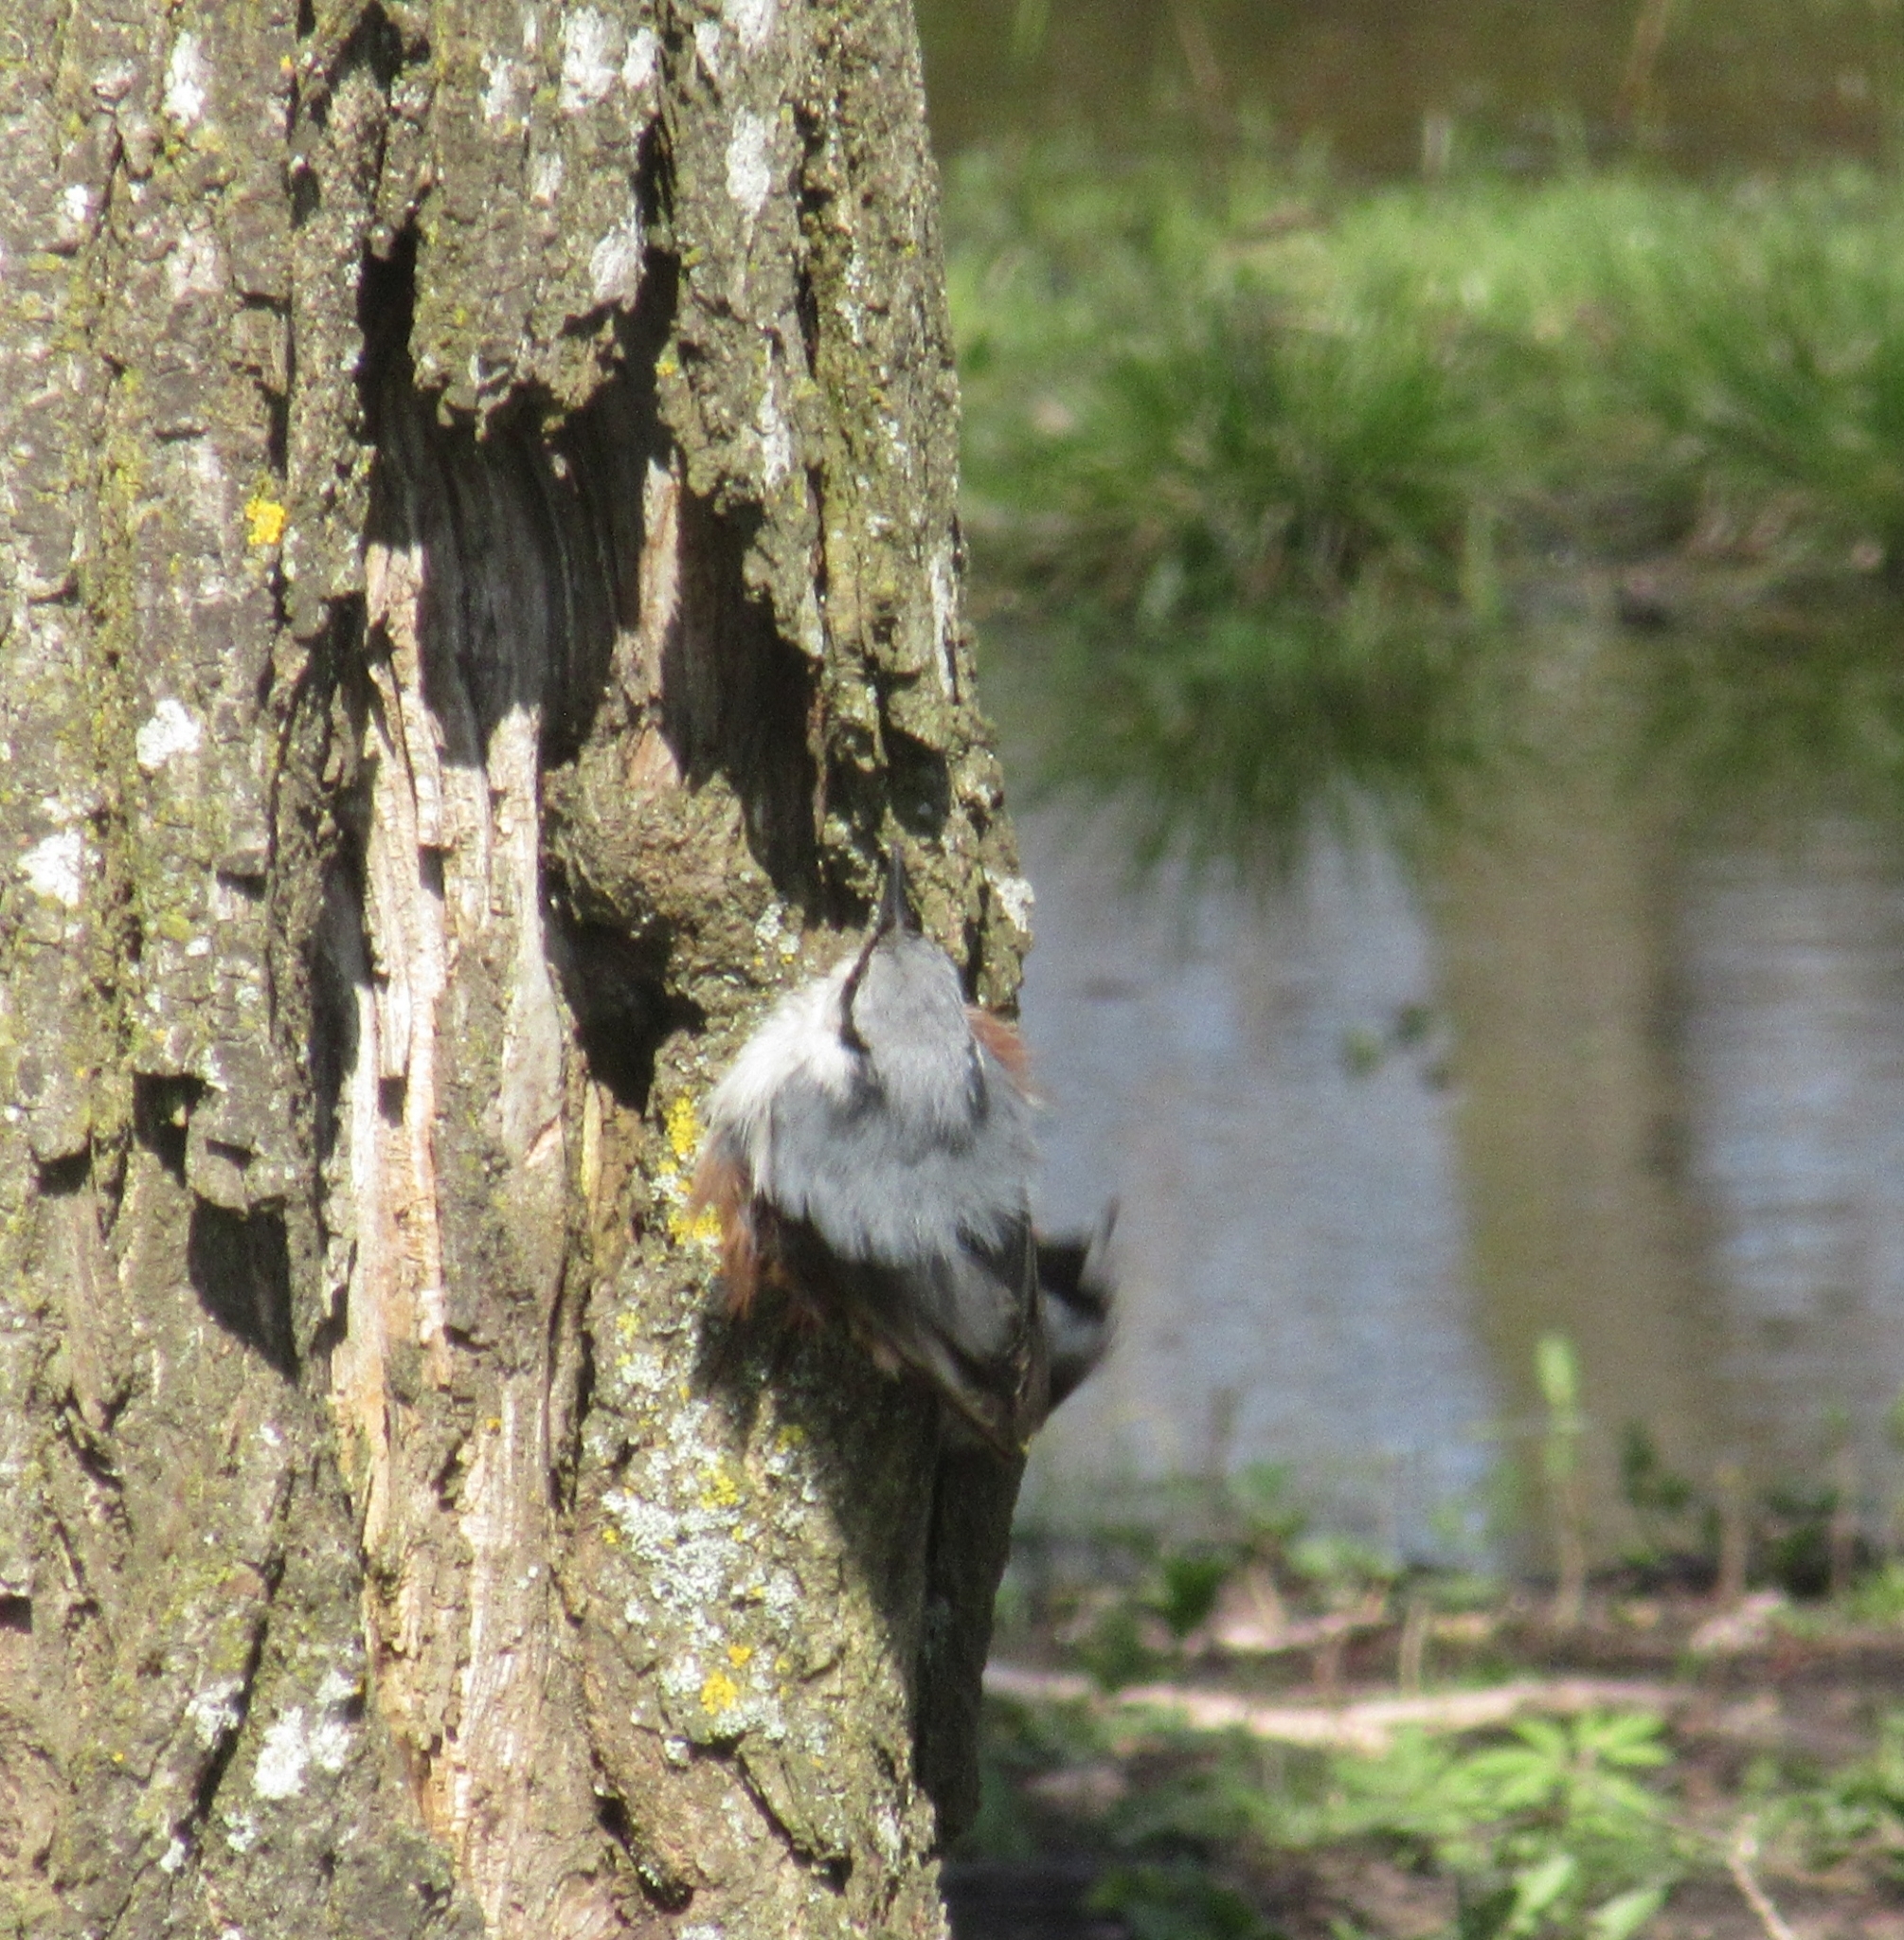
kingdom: Animalia
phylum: Chordata
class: Aves
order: Passeriformes
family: Sittidae
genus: Sitta
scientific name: Sitta europaea
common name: Eurasian nuthatch
